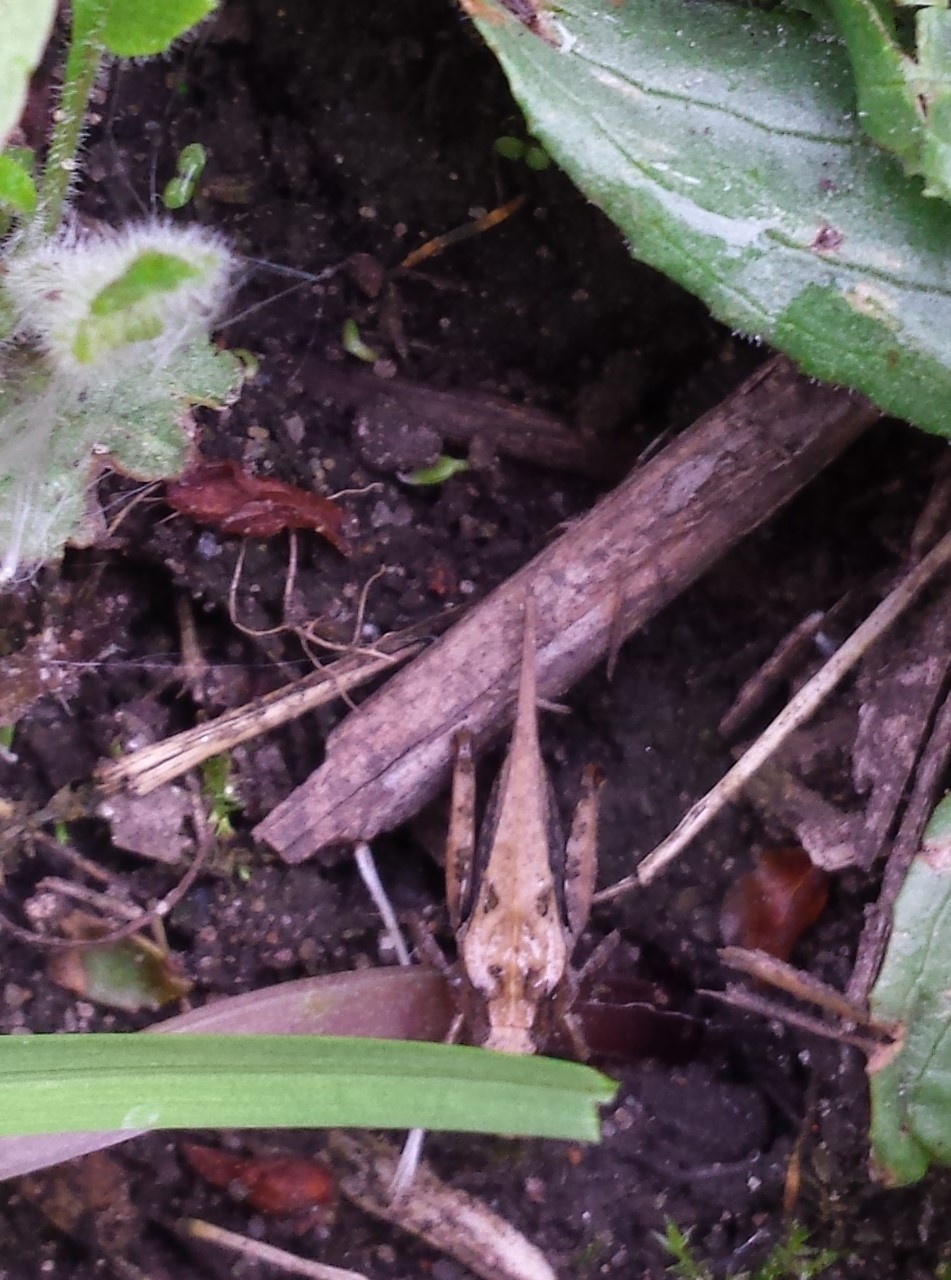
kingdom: Animalia
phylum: Arthropoda
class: Insecta
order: Orthoptera
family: Tetrigidae
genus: Tetrix
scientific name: Tetrix subulata
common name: Slender ground-hopper
